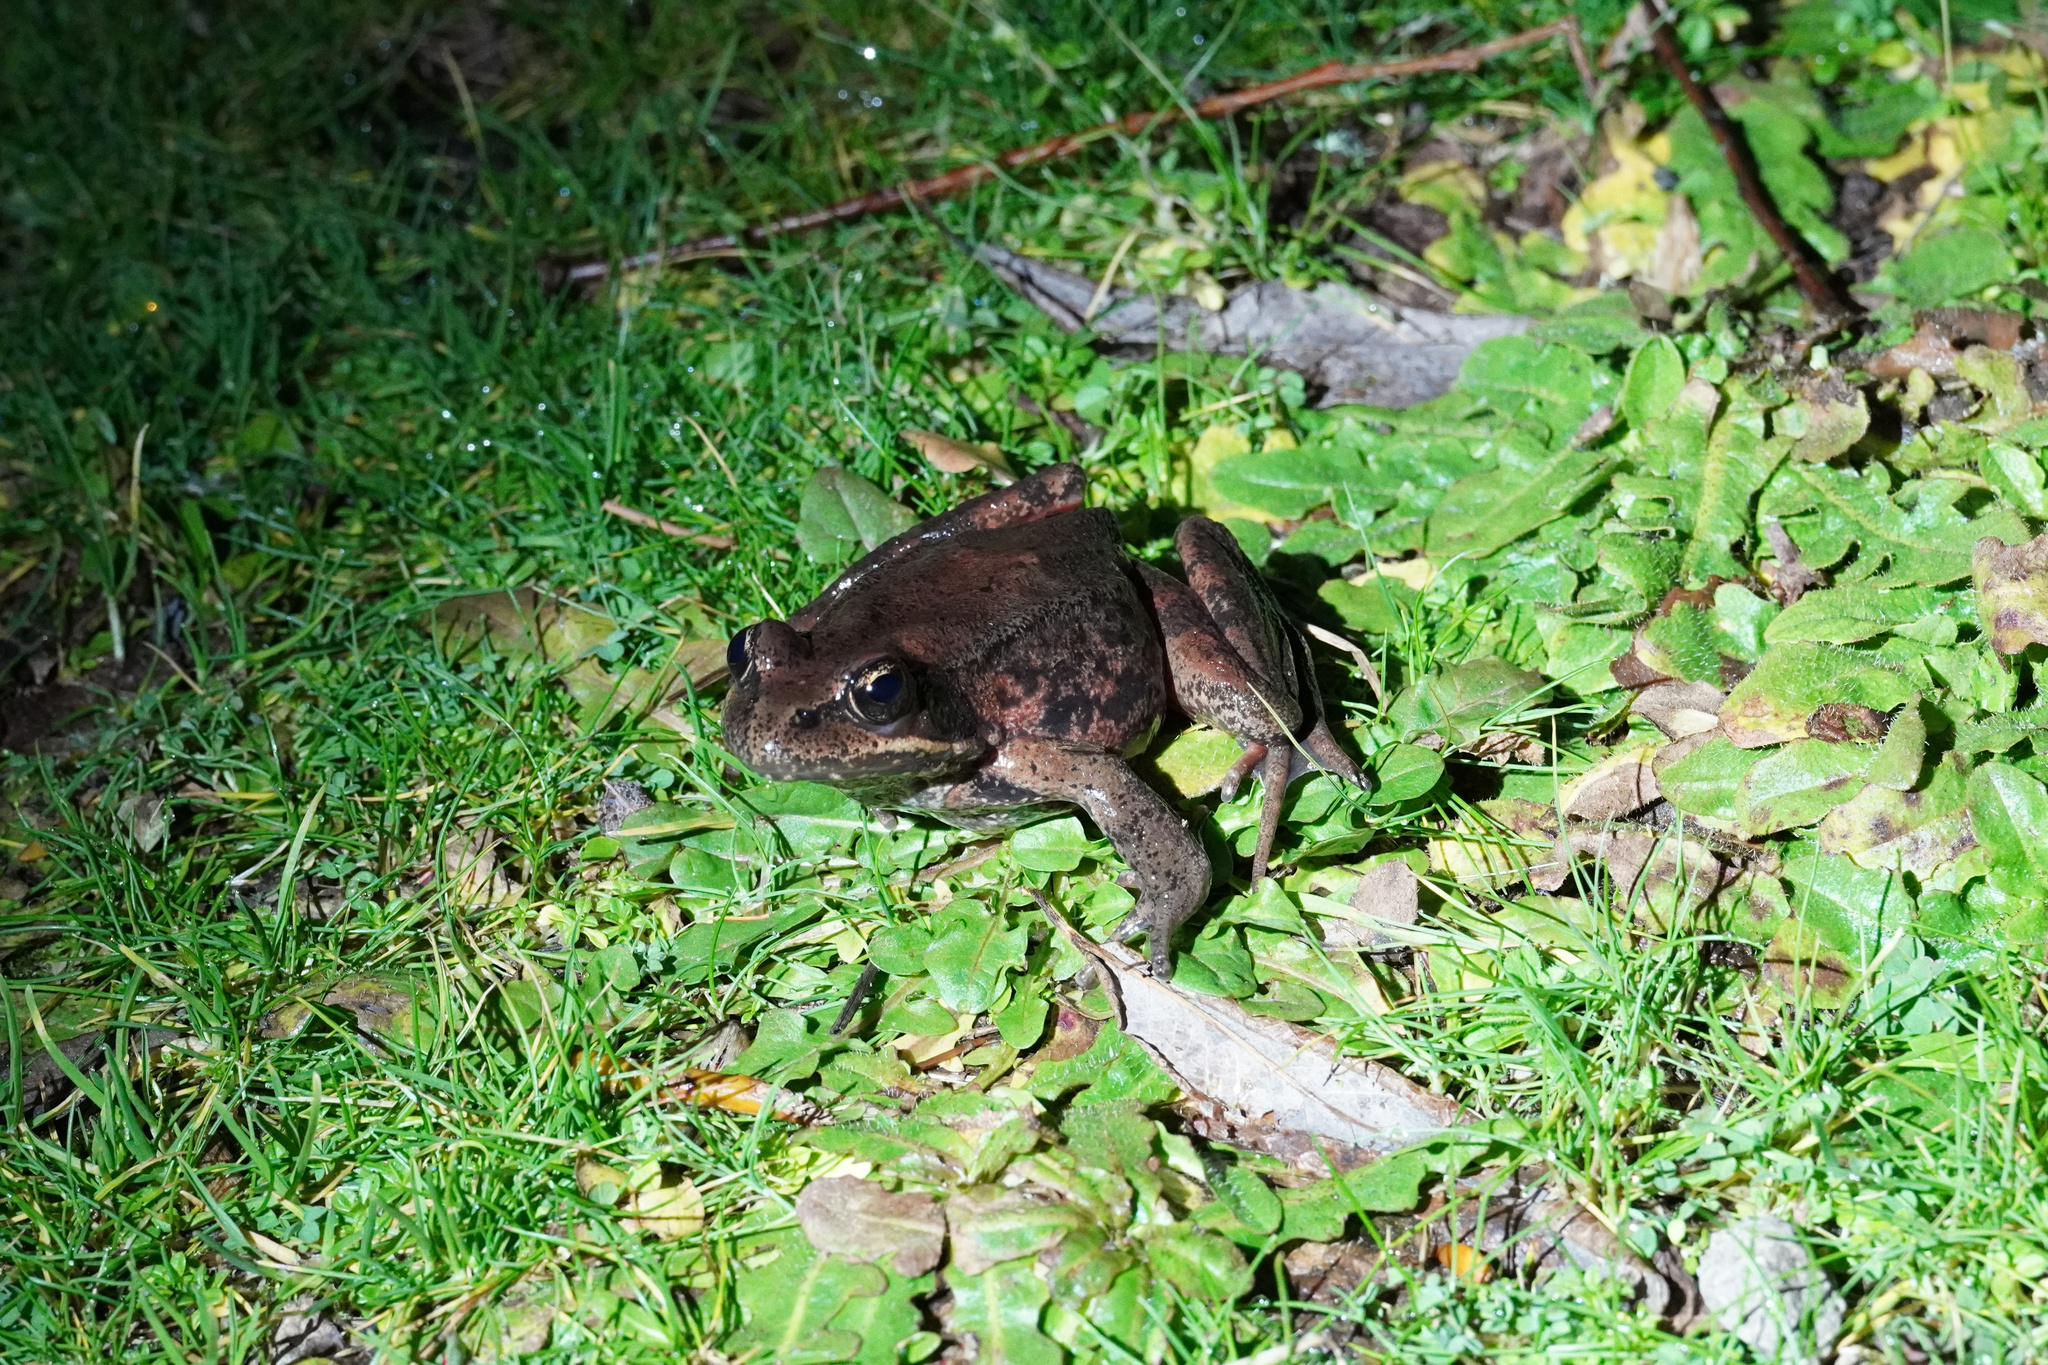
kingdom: Animalia
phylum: Chordata
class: Amphibia
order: Anura
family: Ranidae
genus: Rana
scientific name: Rana aurora
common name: Red-legged frog
